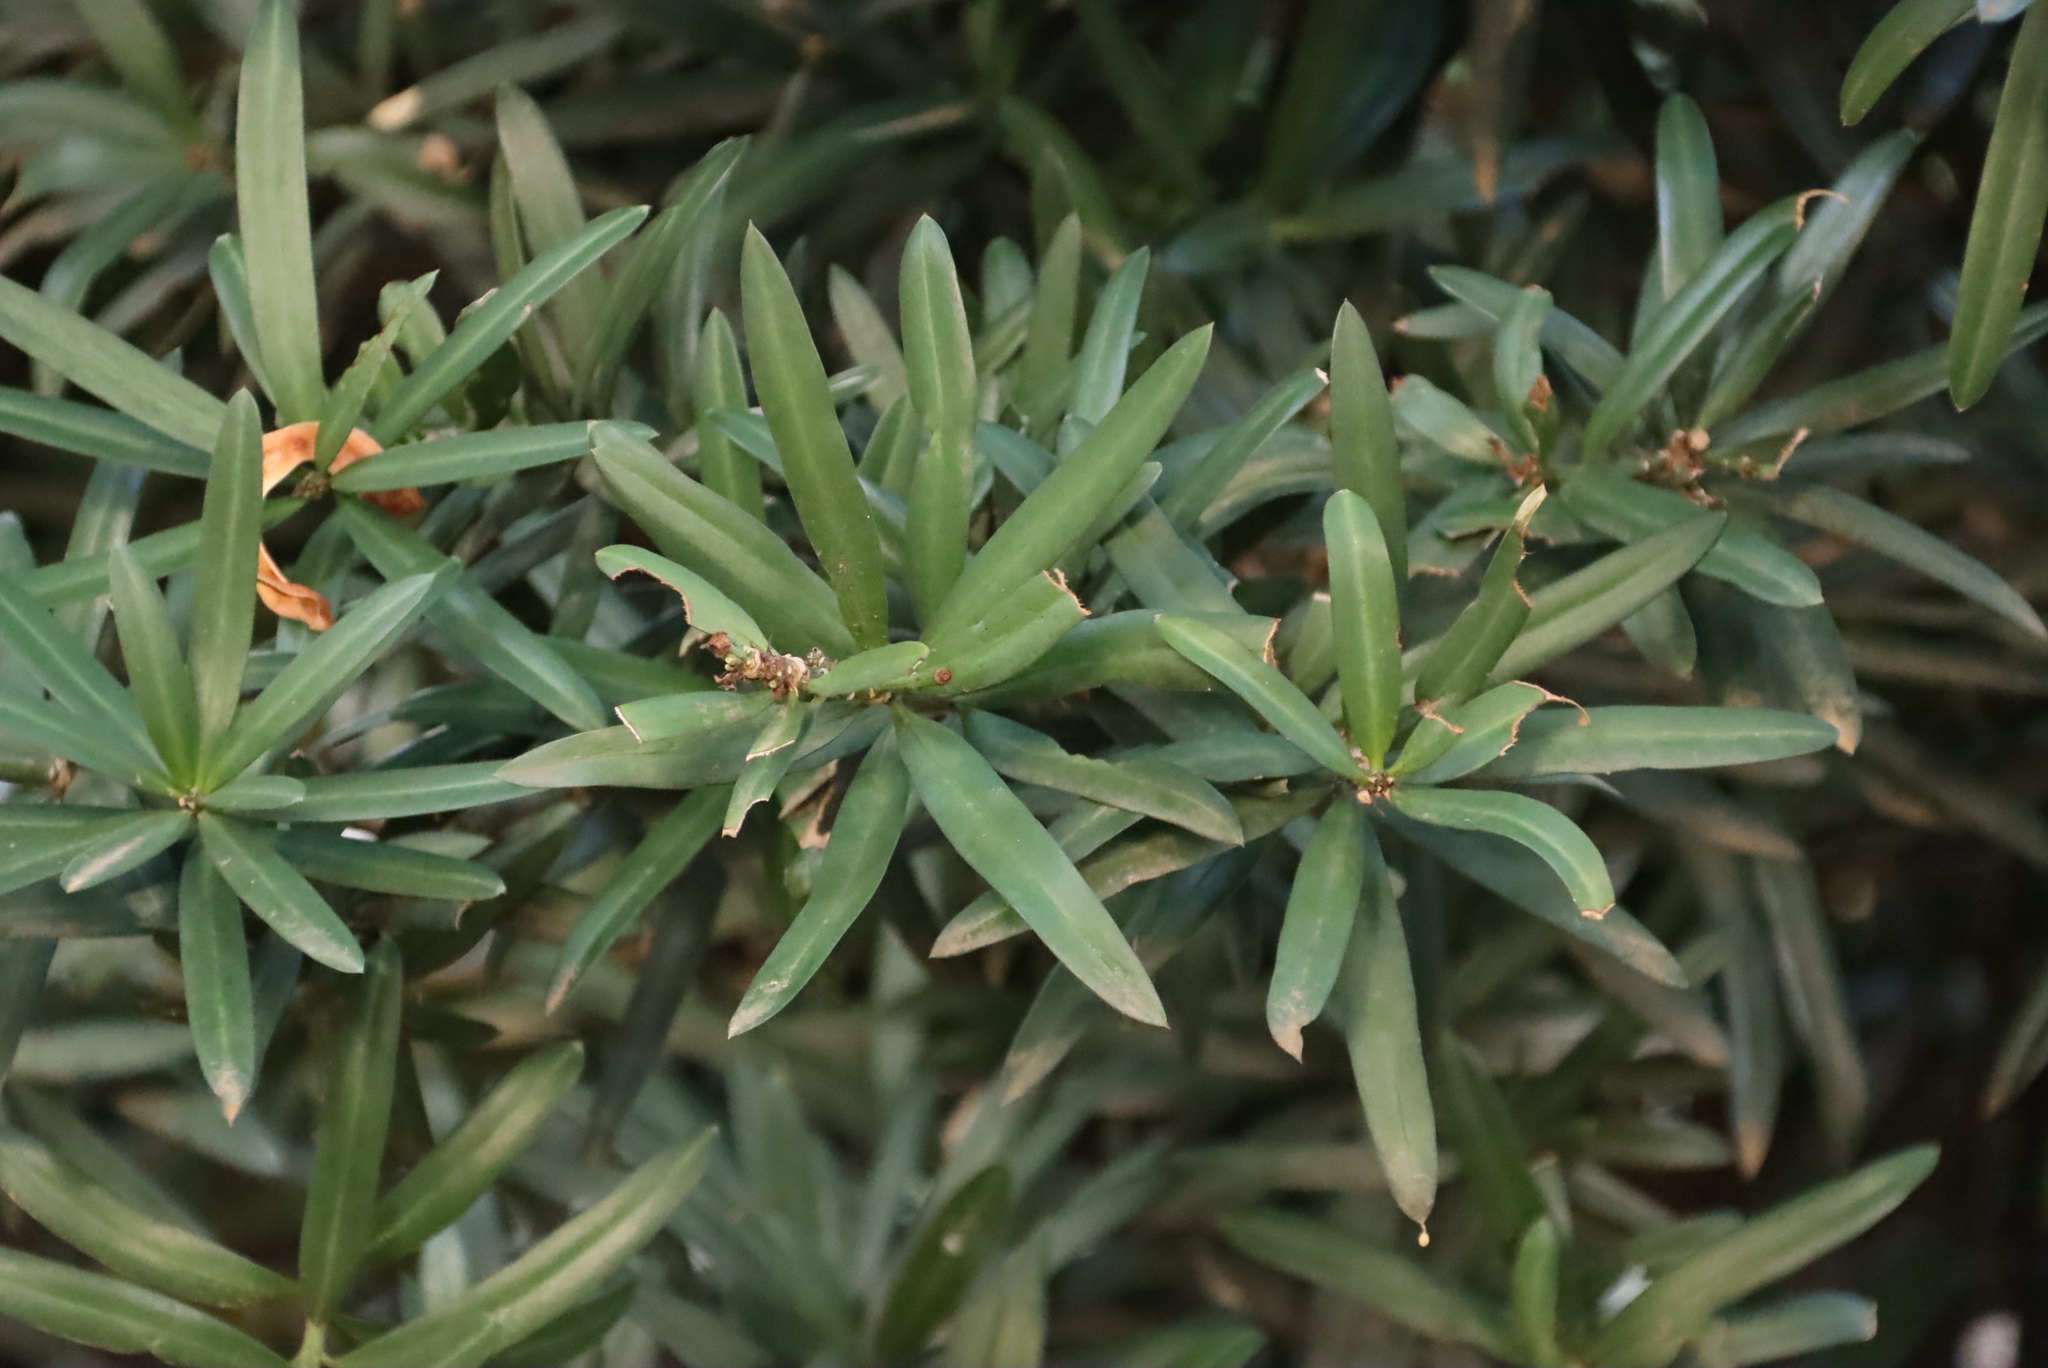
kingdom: Plantae
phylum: Tracheophyta
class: Pinopsida
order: Pinales
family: Podocarpaceae
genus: Podocarpus
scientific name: Podocarpus latifolius
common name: True yellowwood
